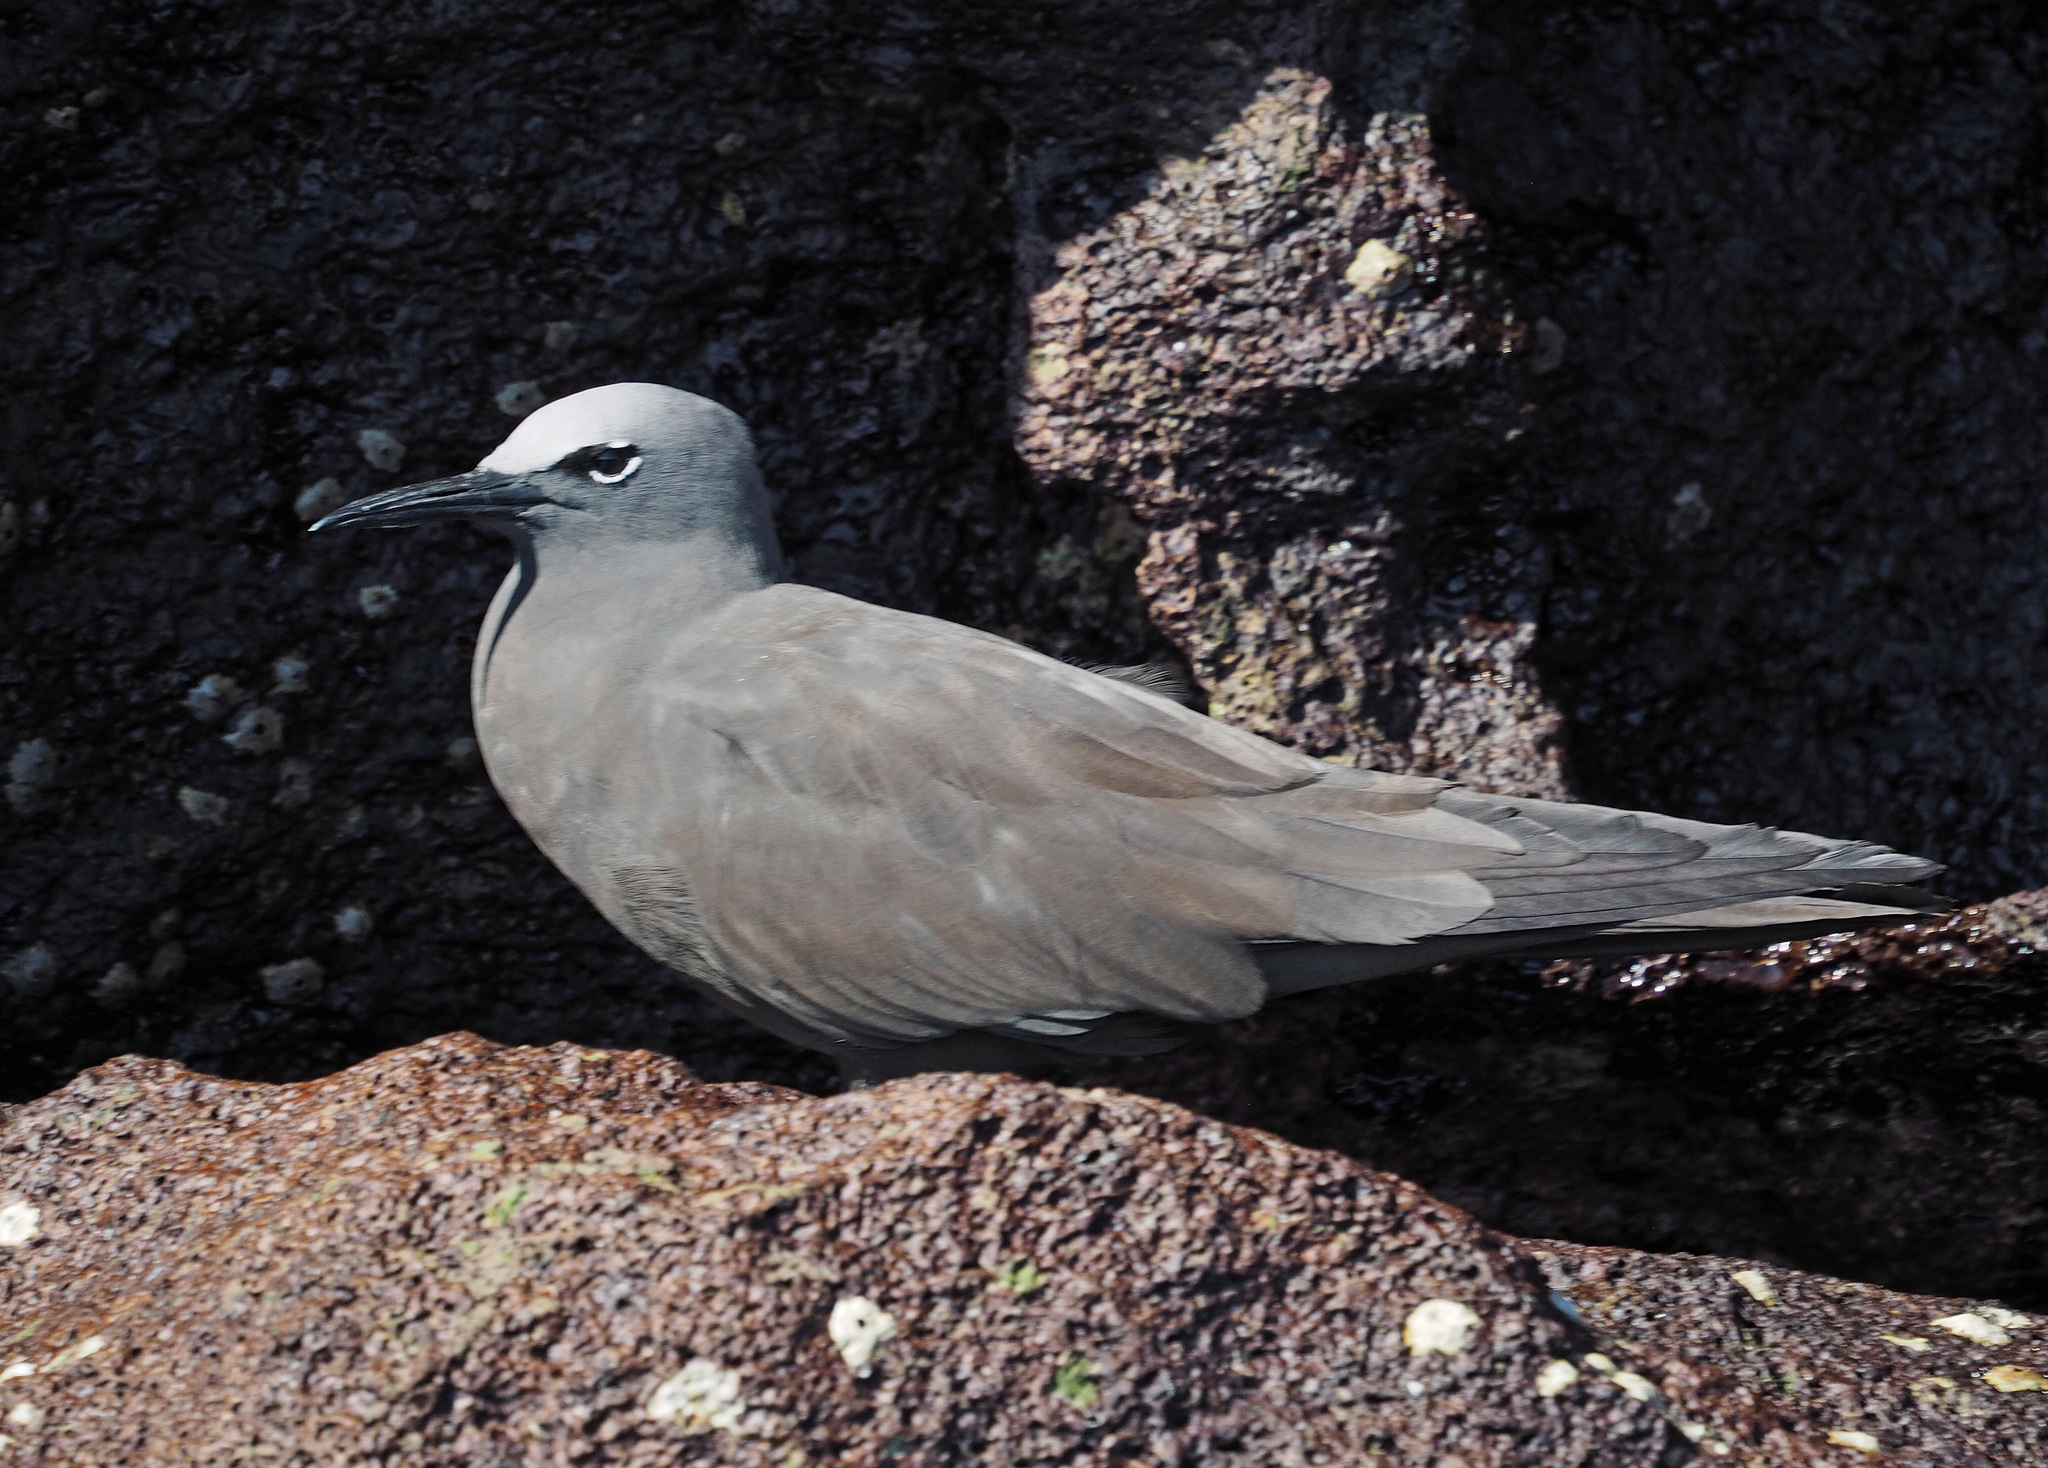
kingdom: Animalia
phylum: Chordata
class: Aves
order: Charadriiformes
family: Laridae
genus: Anous
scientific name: Anous stolidus
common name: Brown noddy
